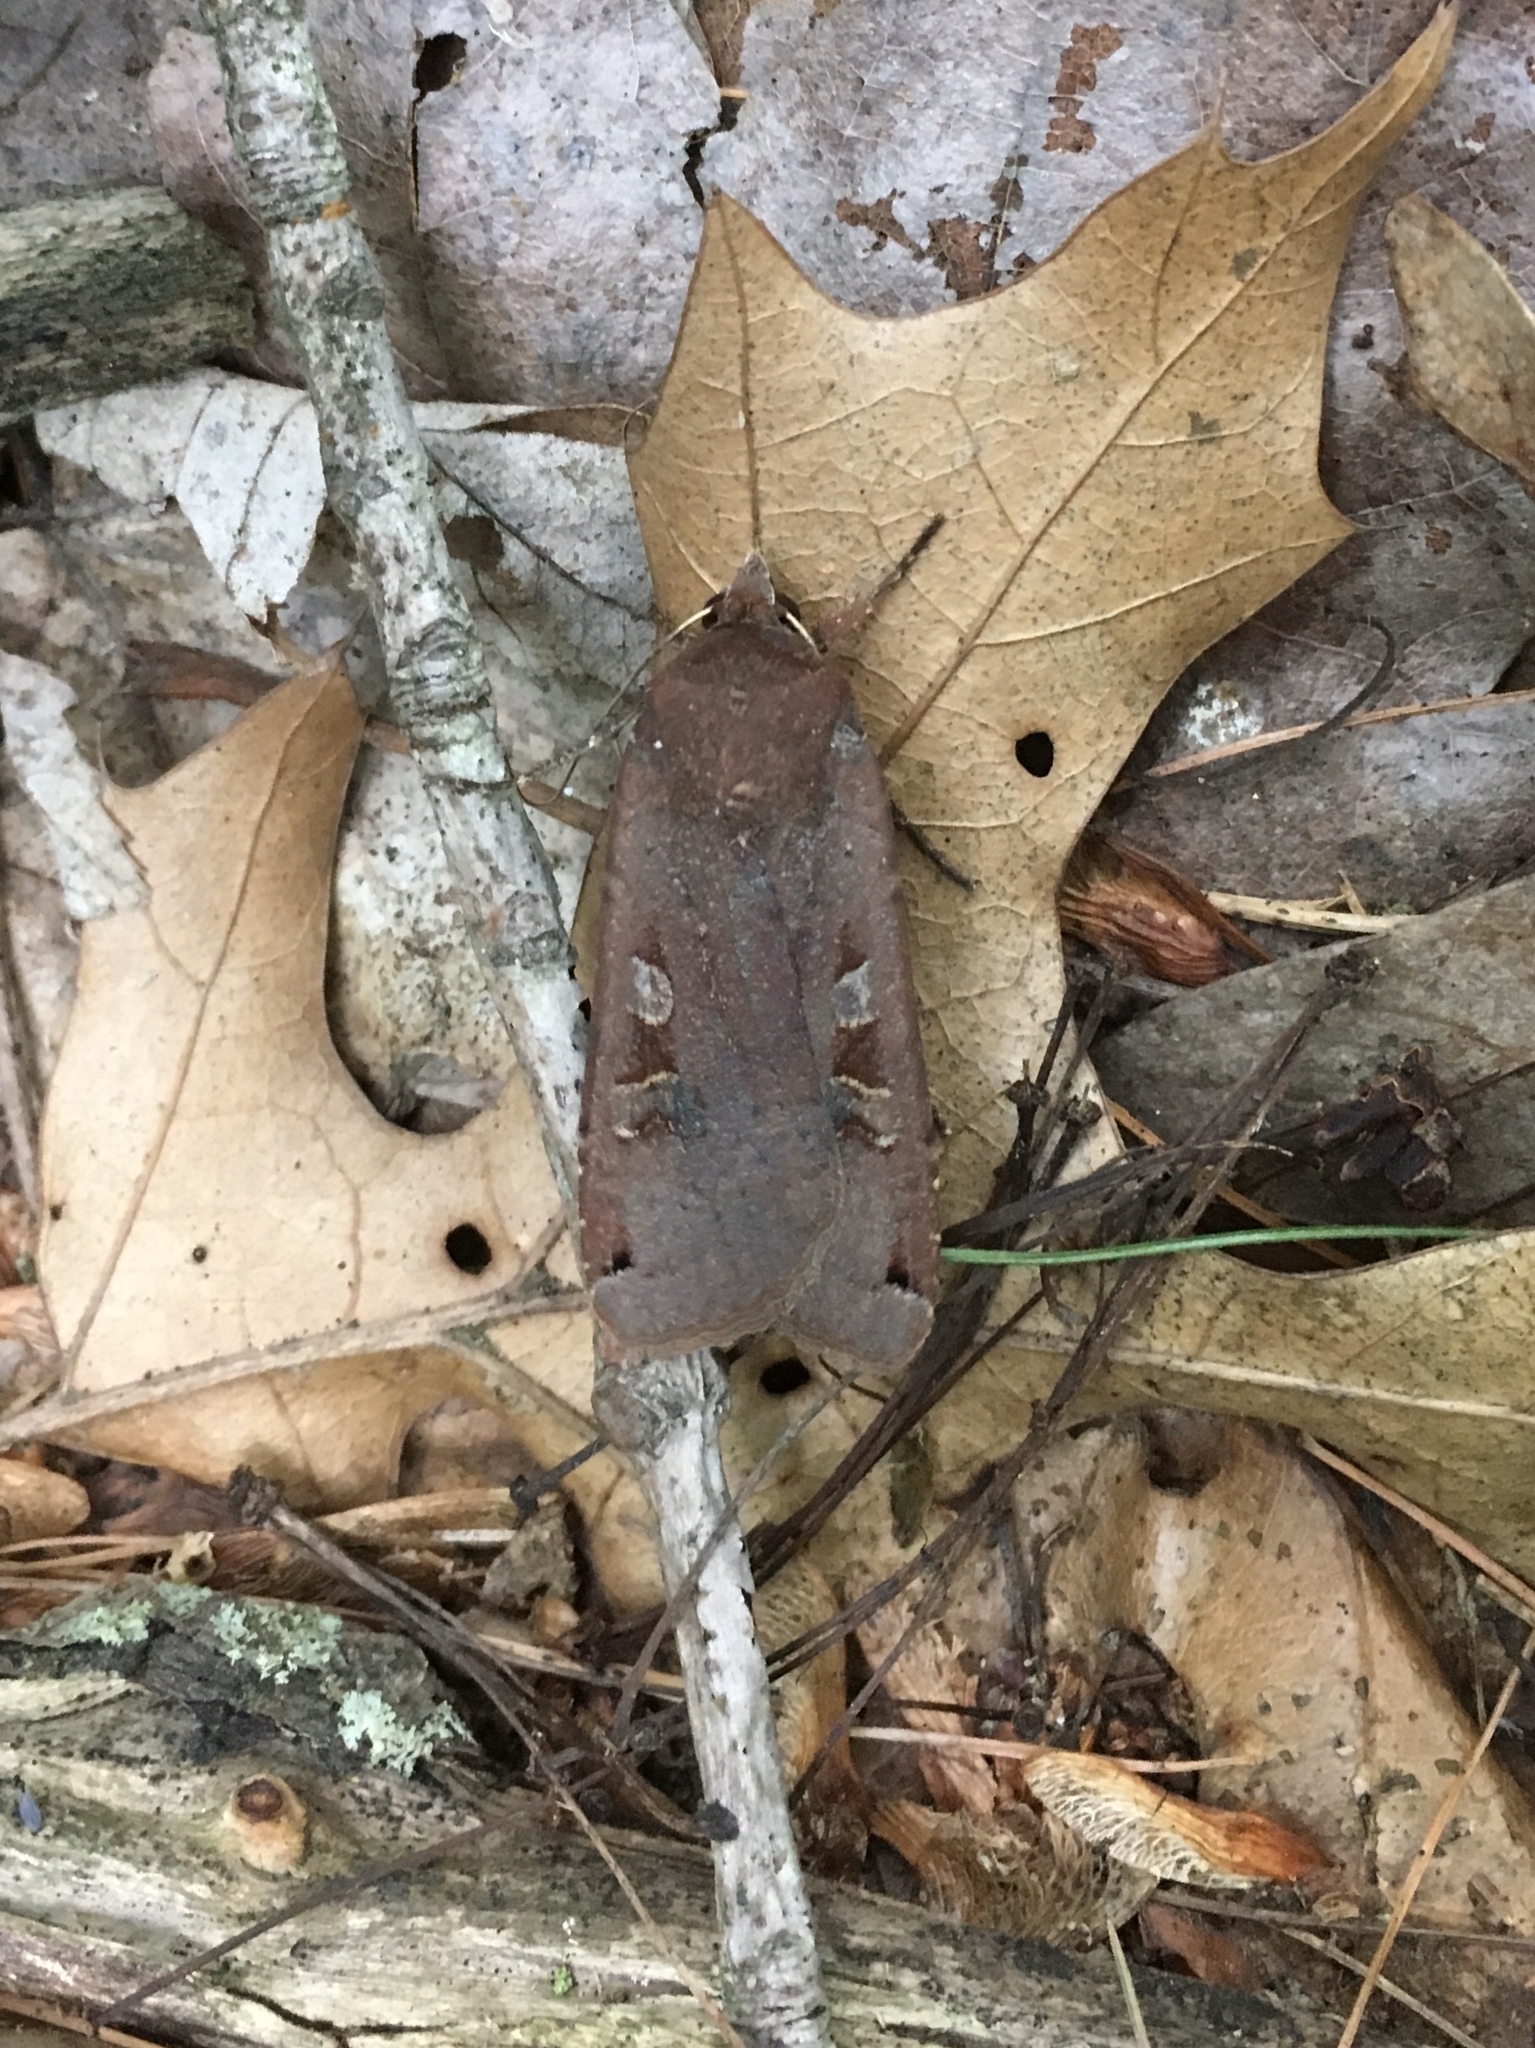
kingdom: Animalia
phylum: Arthropoda
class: Insecta
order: Lepidoptera
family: Noctuidae
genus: Noctua
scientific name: Noctua pronuba
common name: Large yellow underwing
